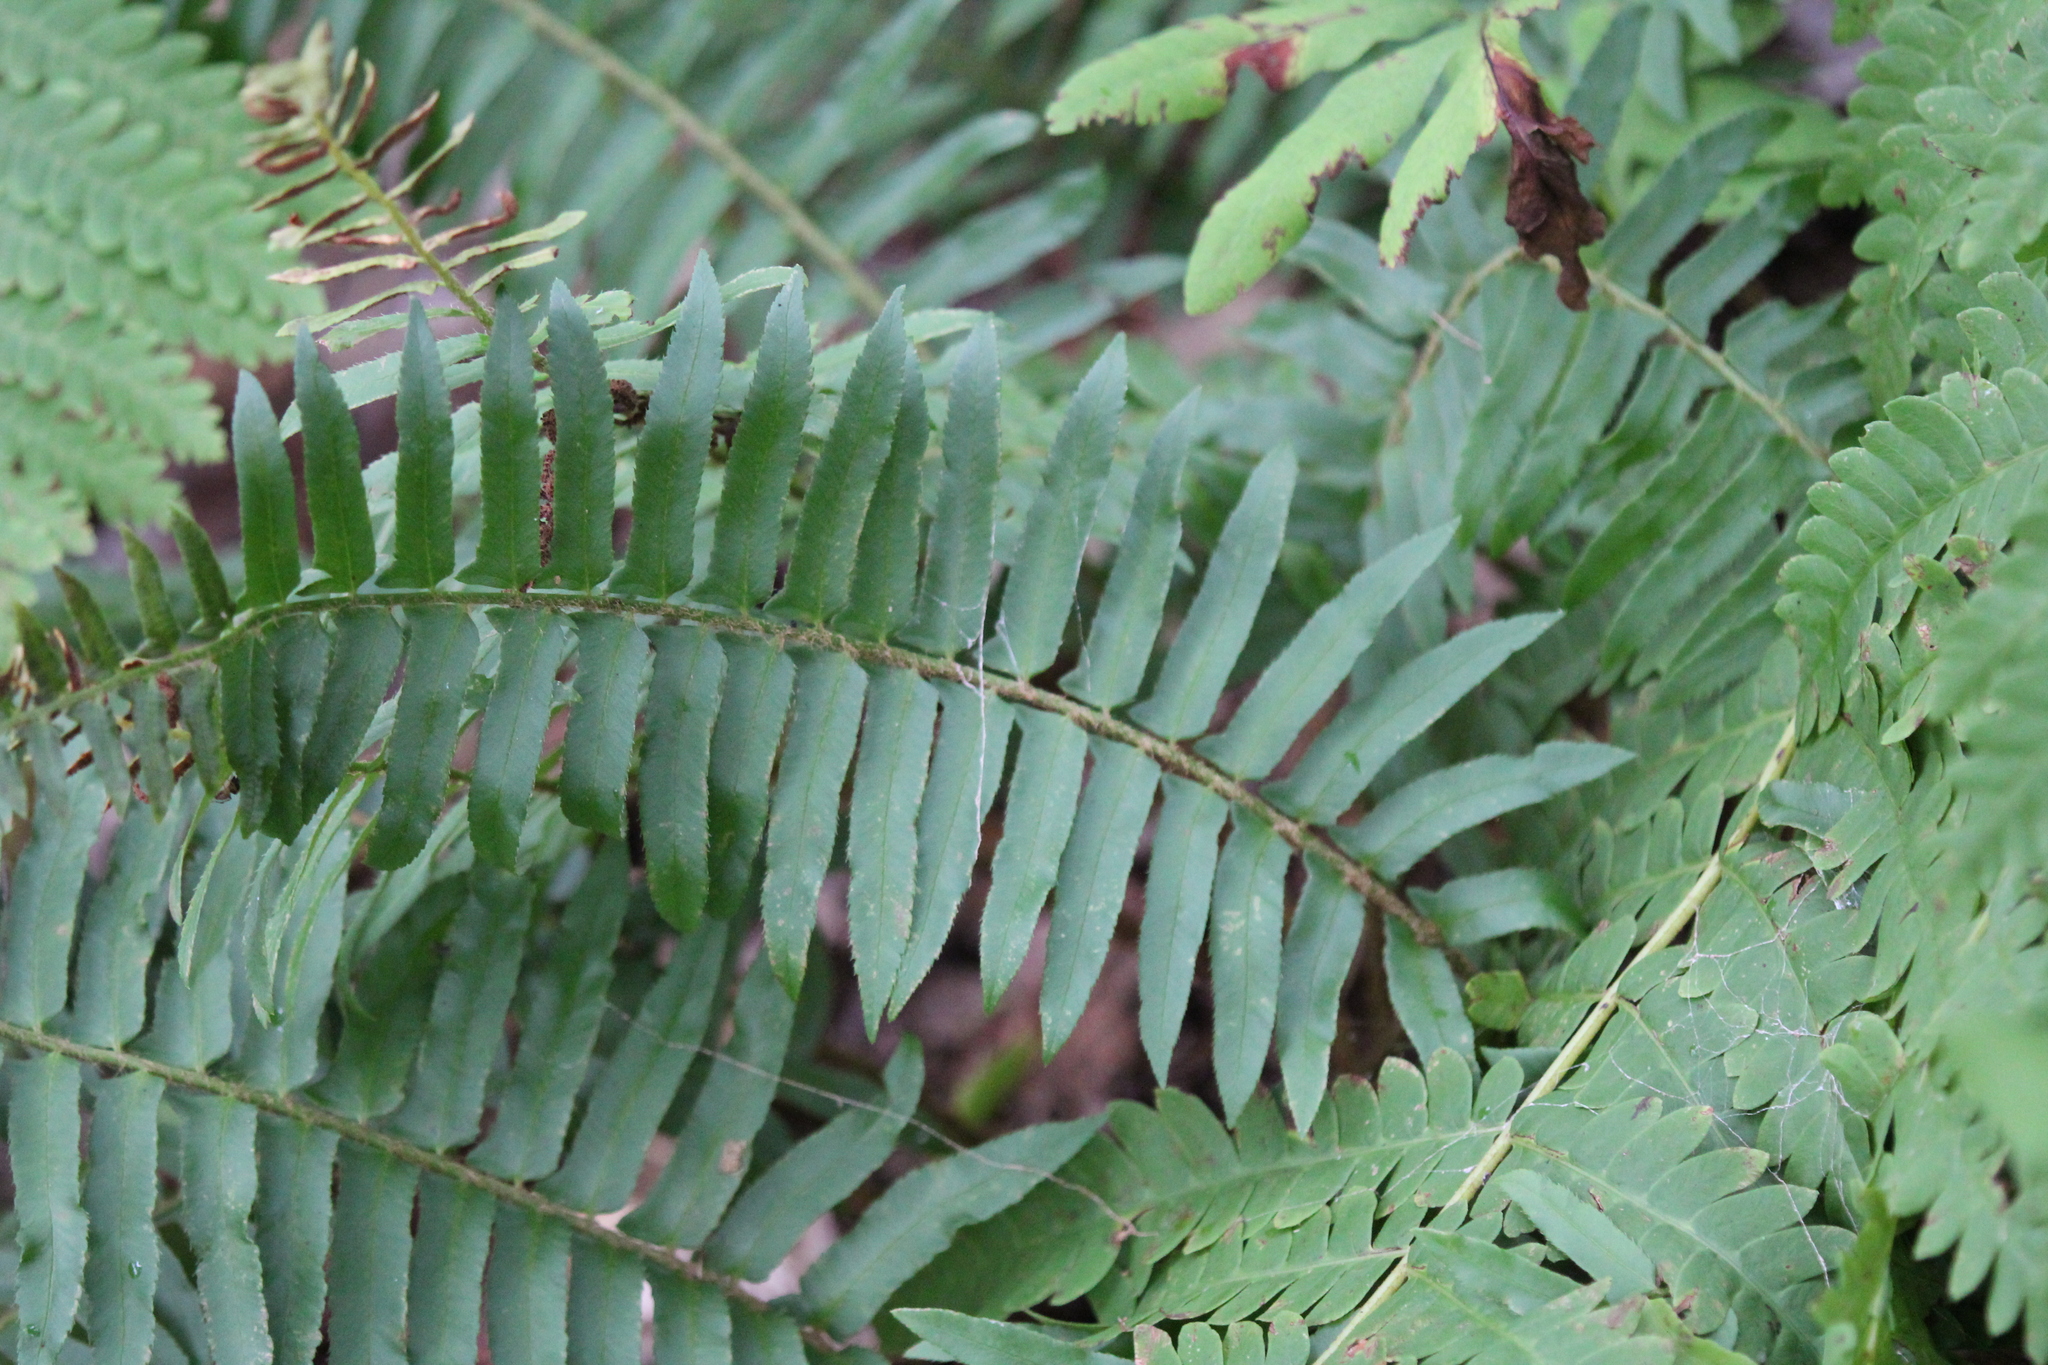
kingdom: Plantae
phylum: Tracheophyta
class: Polypodiopsida
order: Polypodiales
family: Dryopteridaceae
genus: Polystichum
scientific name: Polystichum acrostichoides
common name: Christmas fern
